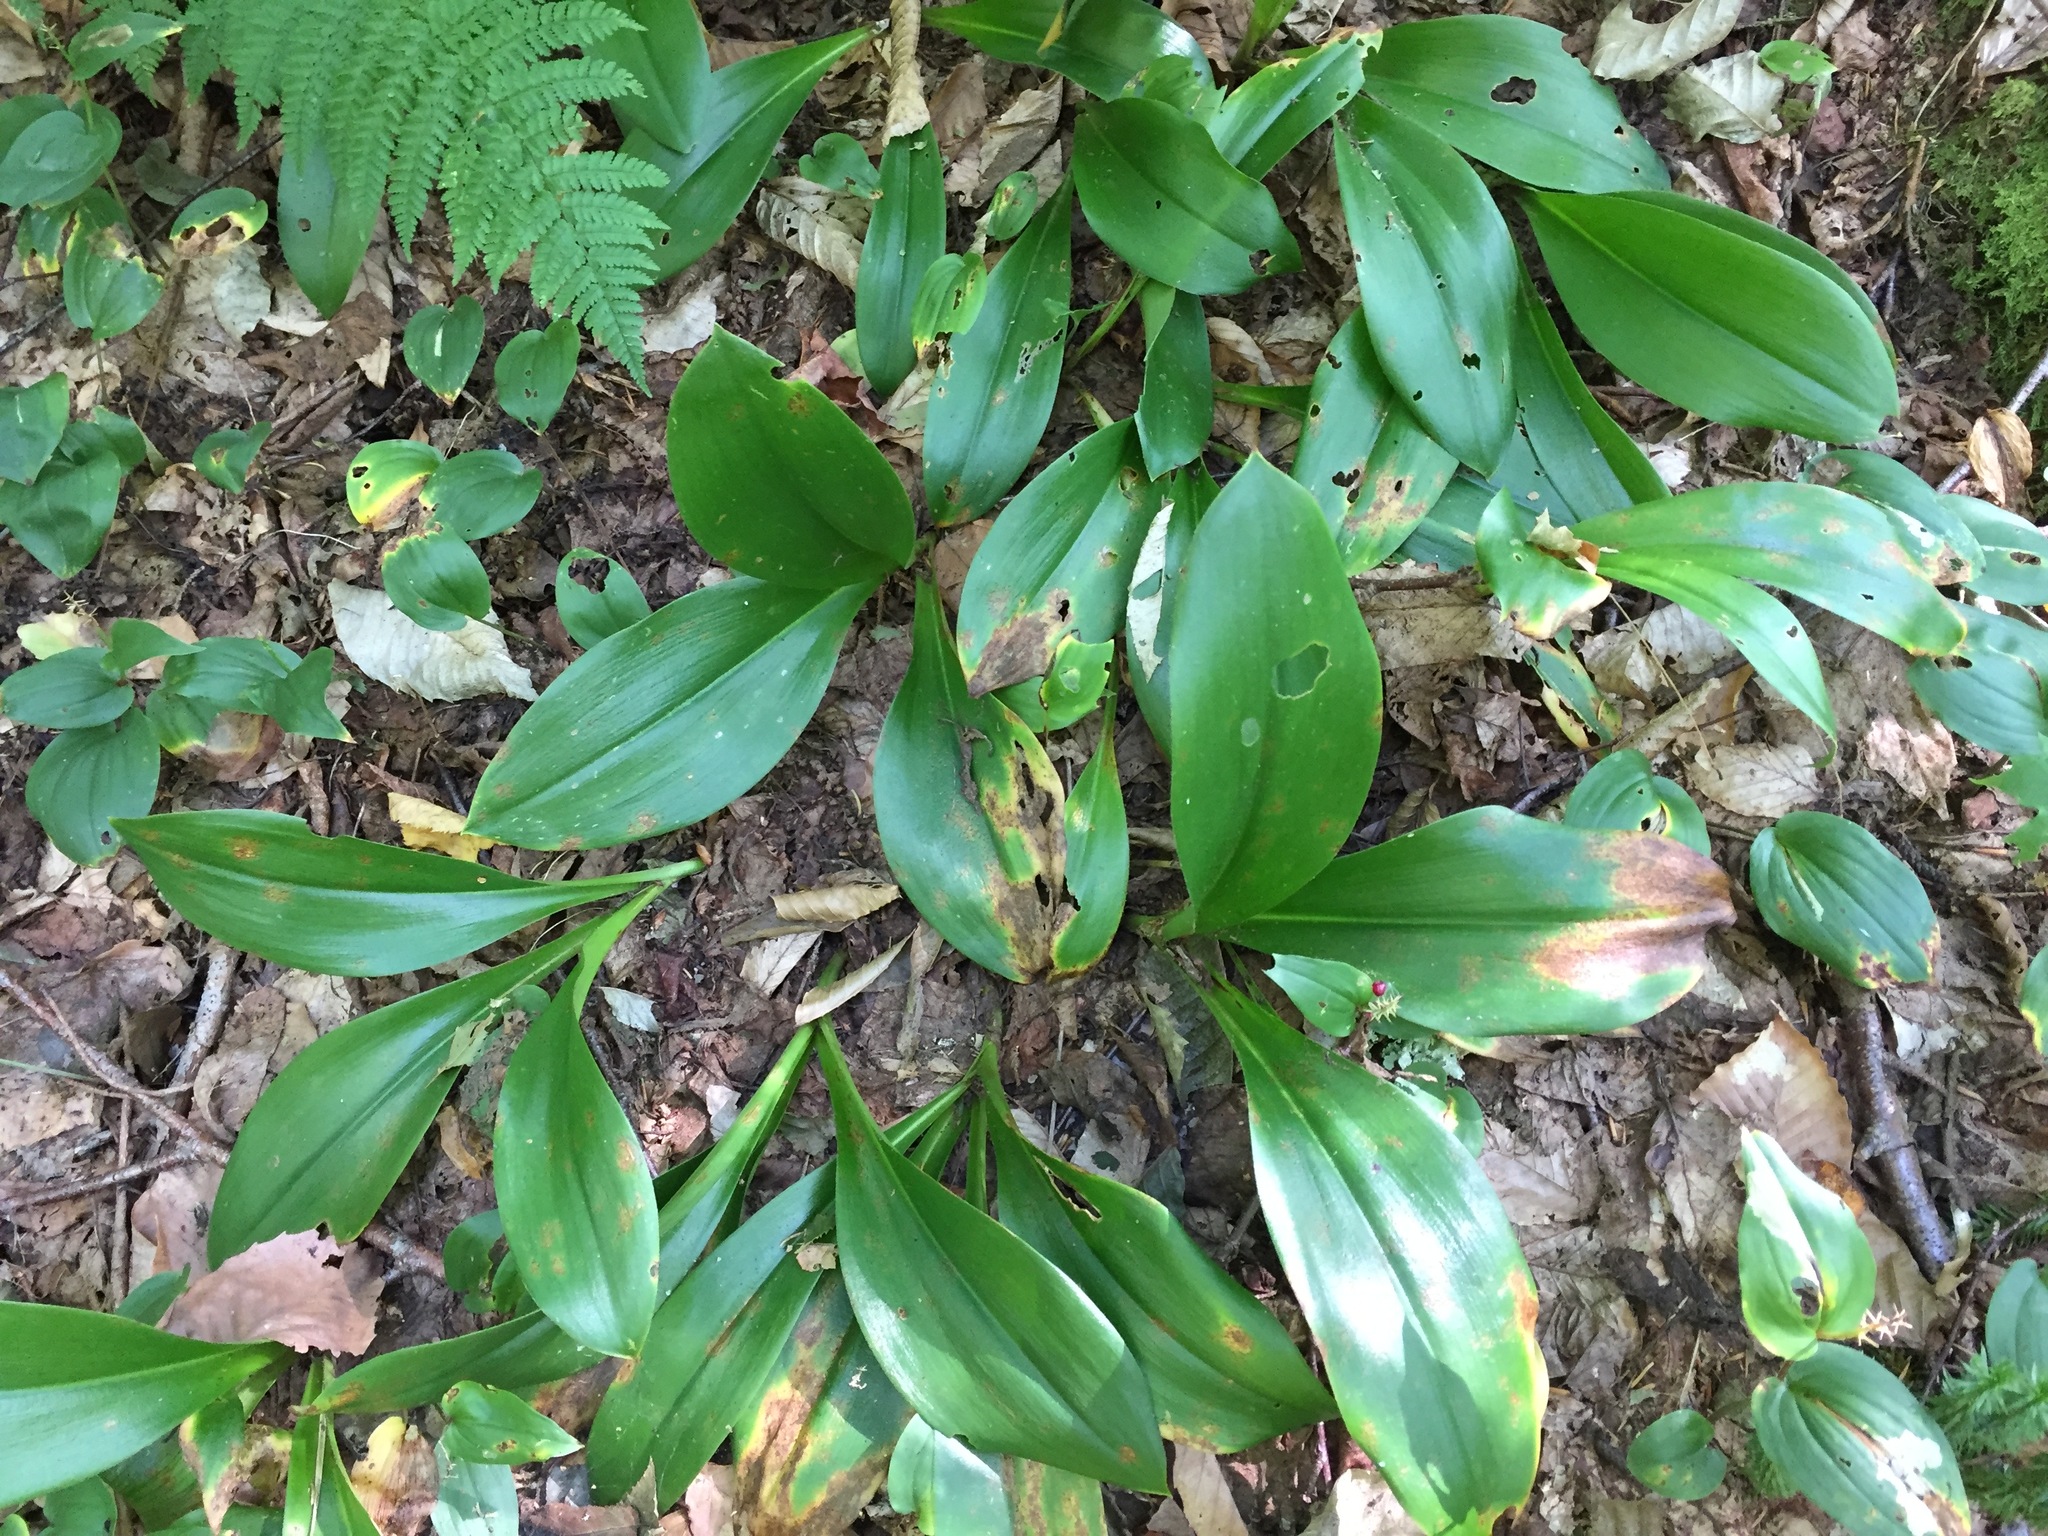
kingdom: Plantae
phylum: Tracheophyta
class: Liliopsida
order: Liliales
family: Liliaceae
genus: Clintonia
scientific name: Clintonia borealis
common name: Yellow clintonia
